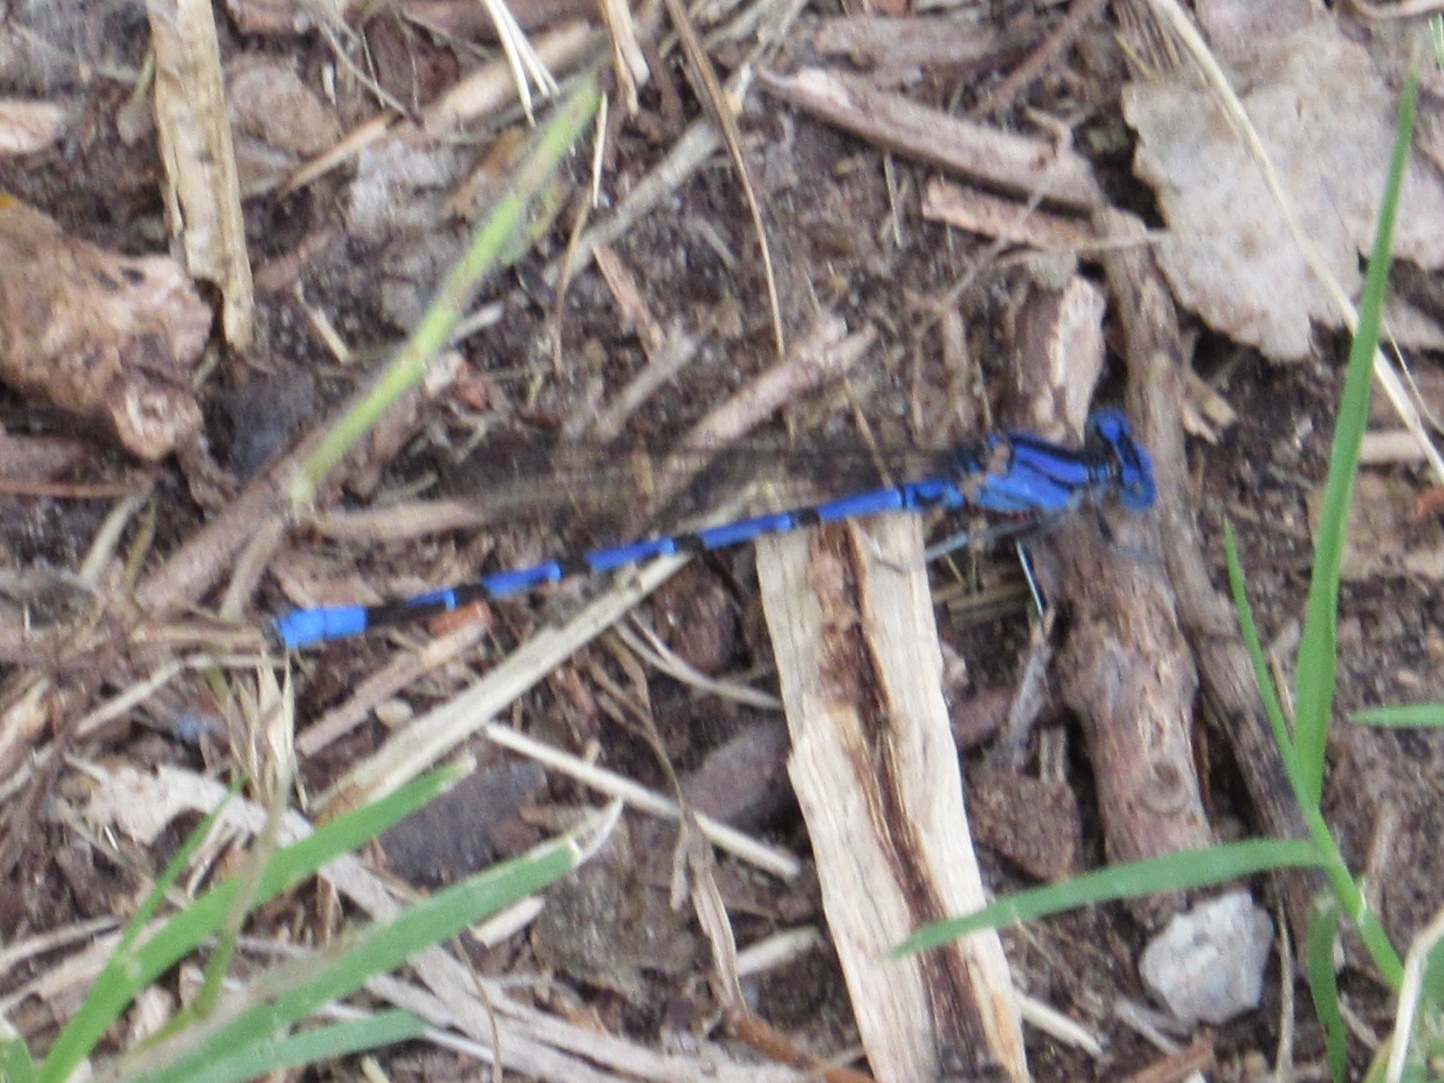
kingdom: Animalia
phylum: Arthropoda
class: Insecta
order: Odonata
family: Coenagrionidae
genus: Argia
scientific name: Argia funebris
